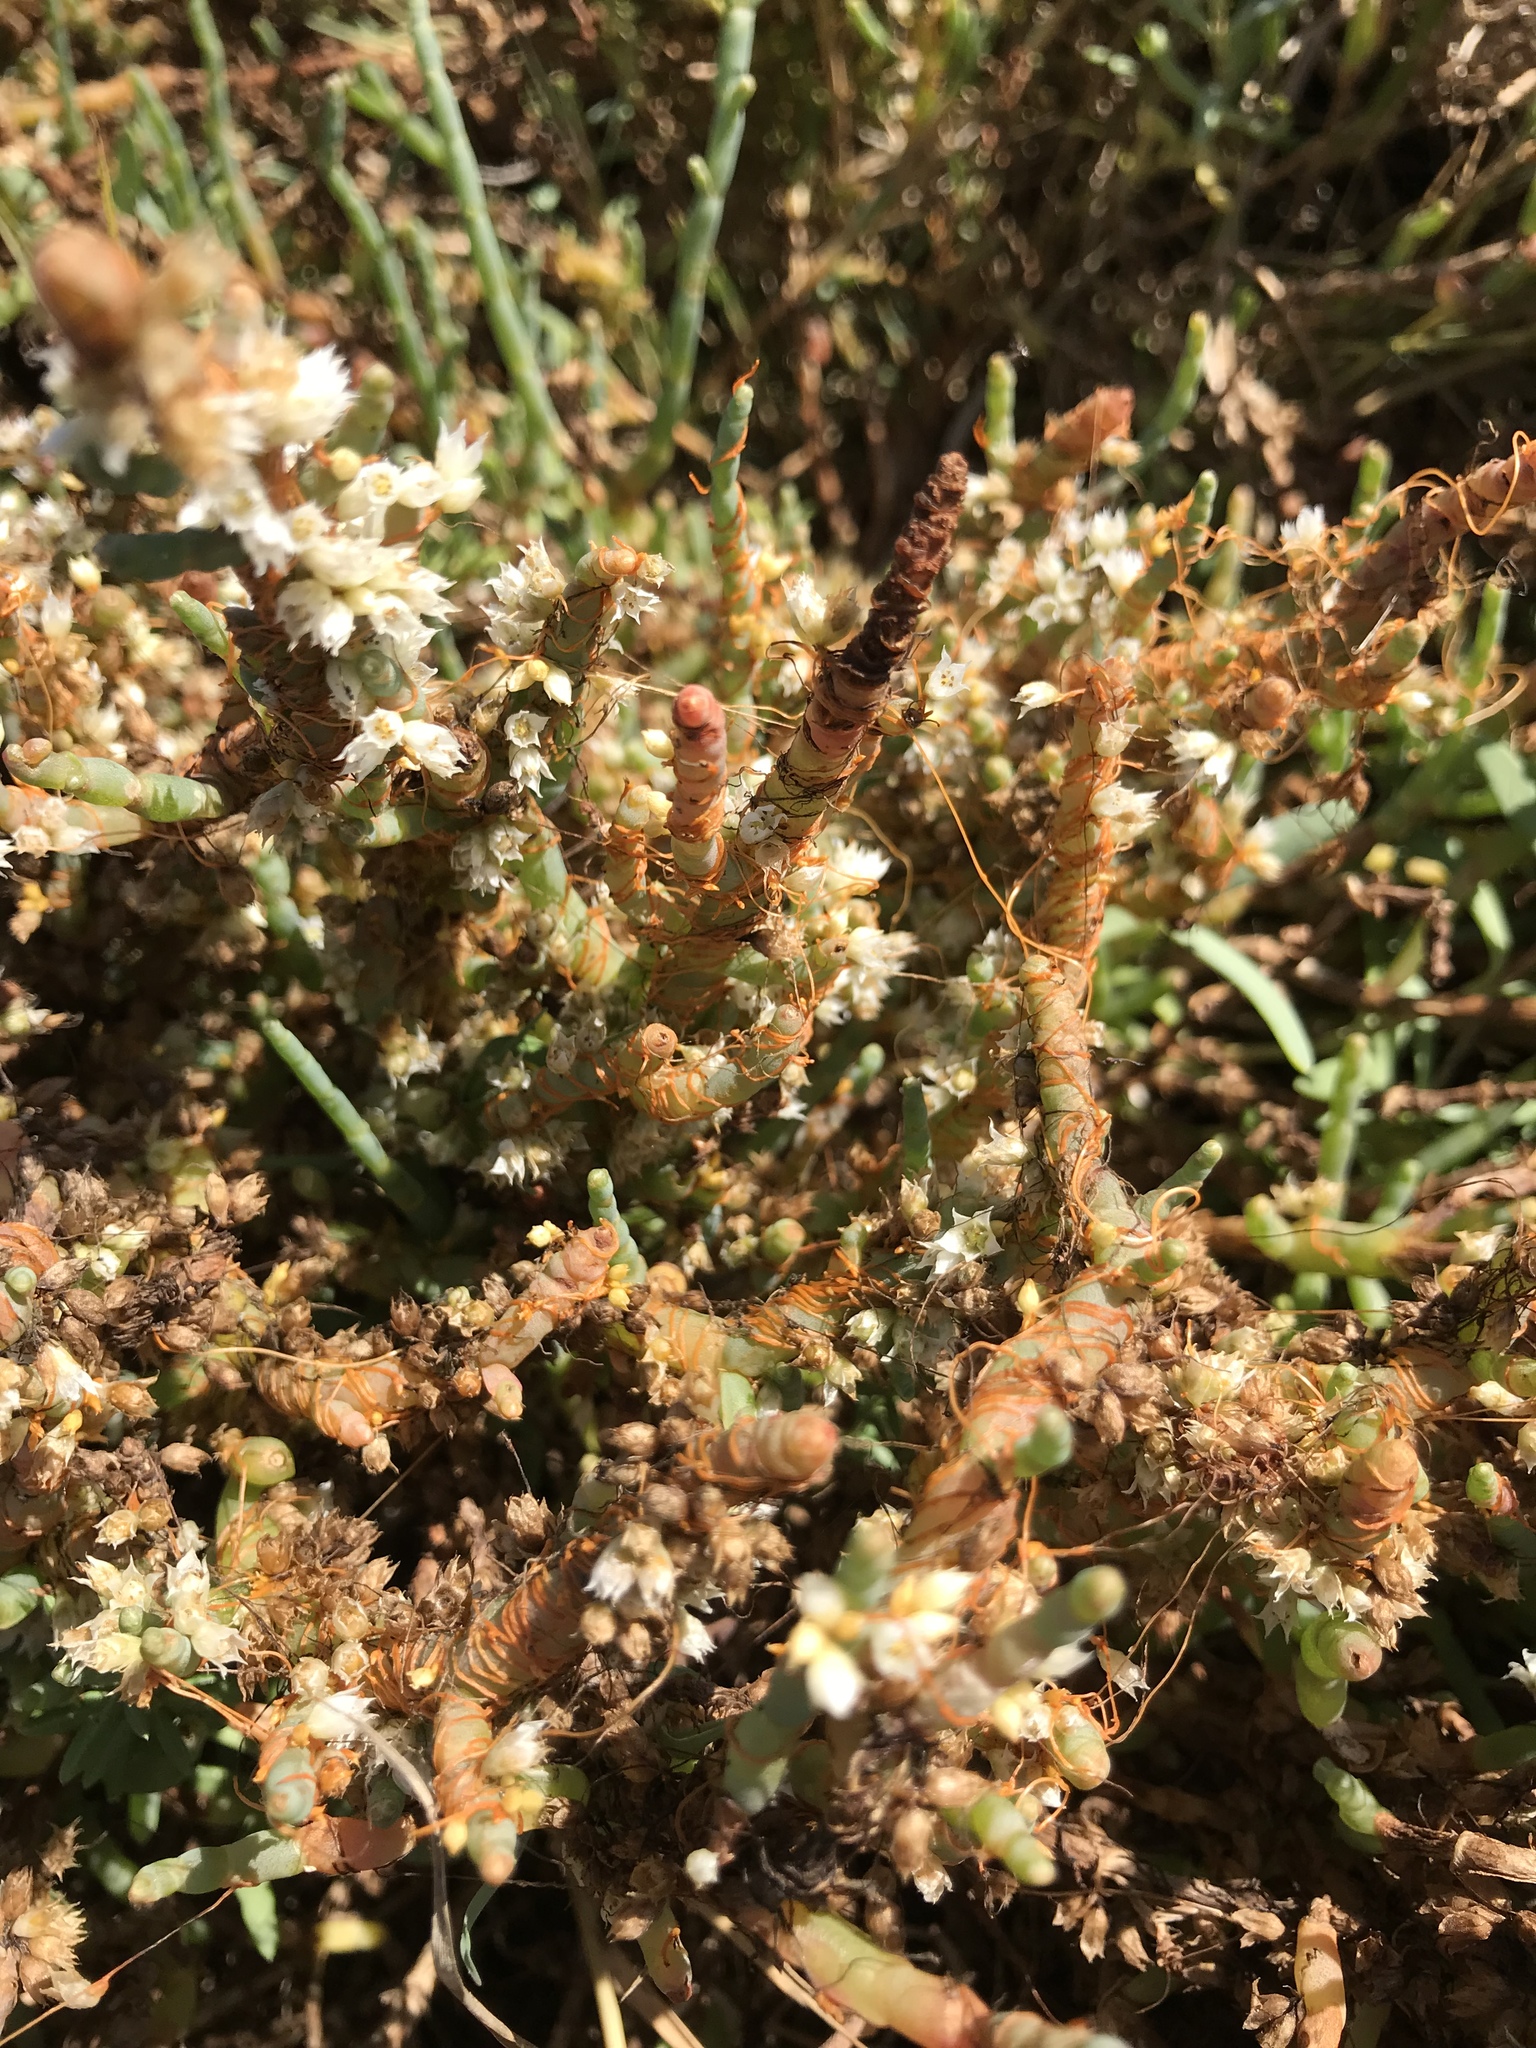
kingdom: Plantae
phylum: Tracheophyta
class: Magnoliopsida
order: Solanales
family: Convolvulaceae
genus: Cuscuta
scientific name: Cuscuta pacifica
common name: Large saltmarsh dodder
